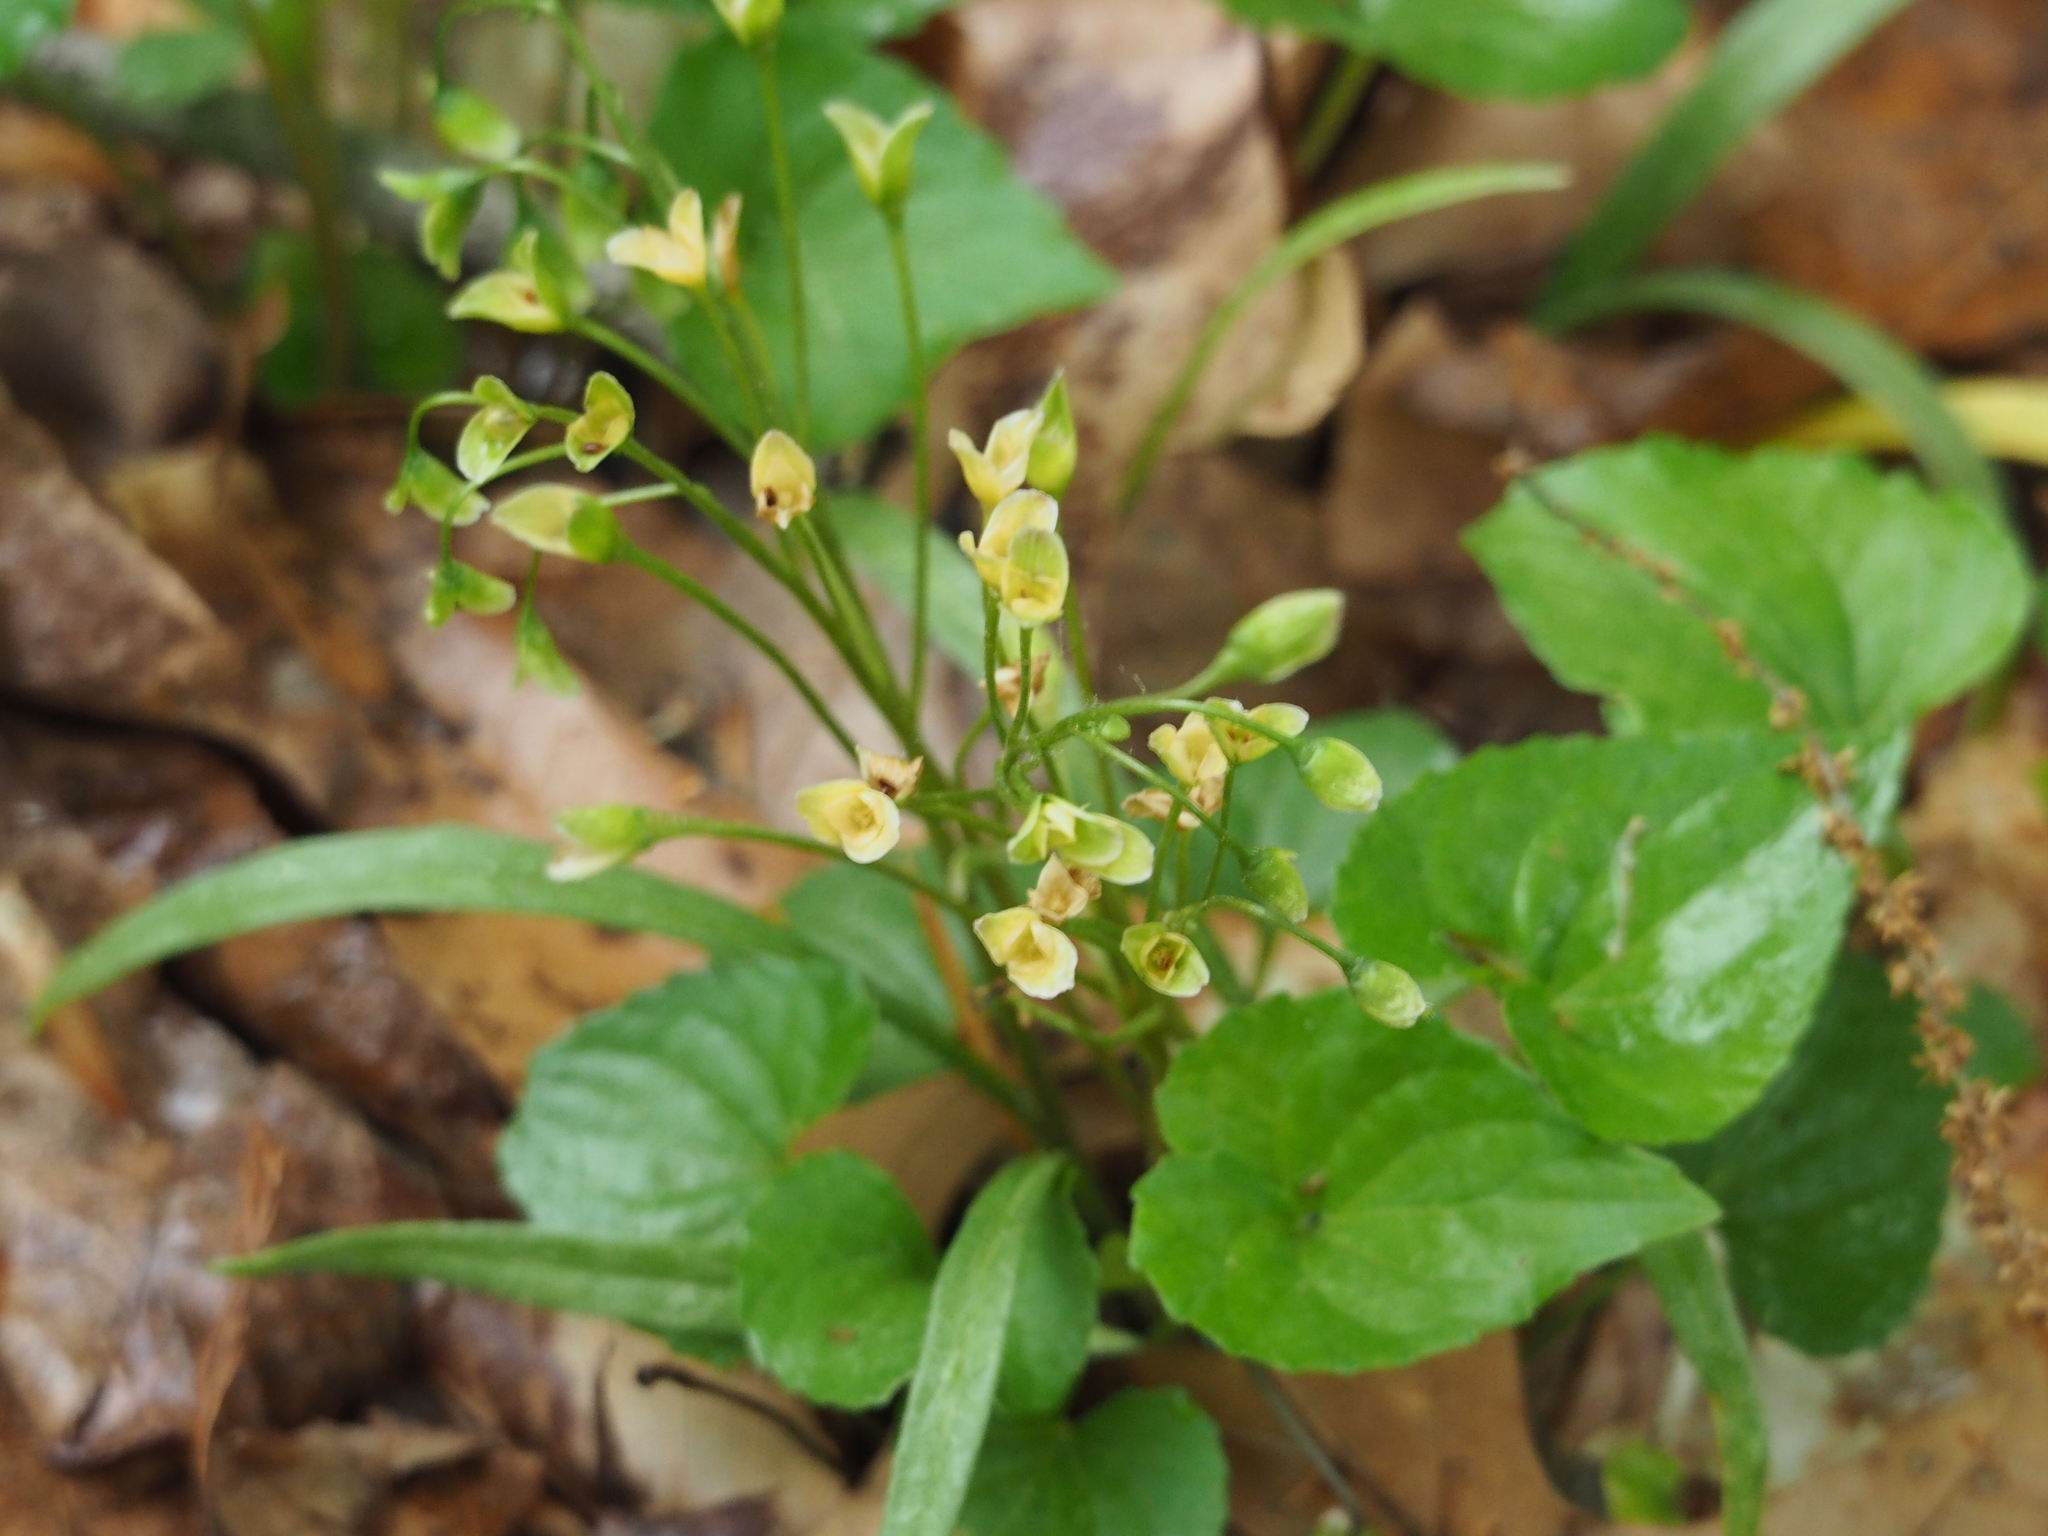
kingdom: Plantae
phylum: Tracheophyta
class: Magnoliopsida
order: Malpighiales
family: Violaceae
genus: Viola
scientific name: Viola sororia
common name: Dooryard violet
